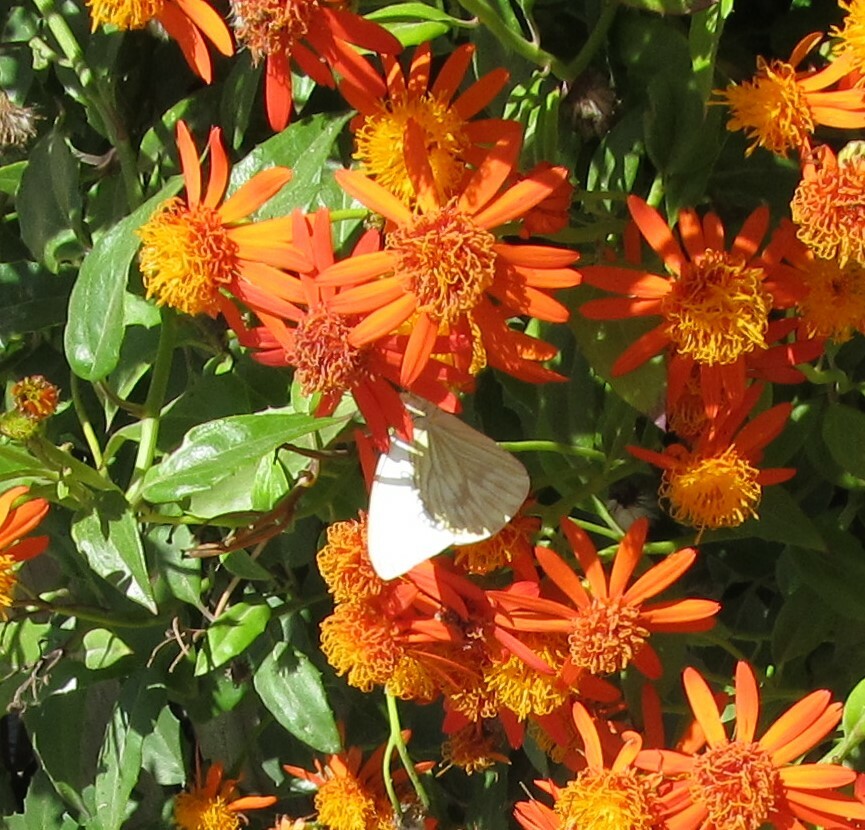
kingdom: Animalia
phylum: Arthropoda
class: Insecta
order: Lepidoptera
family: Pieridae
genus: Ascia
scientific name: Ascia monuste
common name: Great southern white
